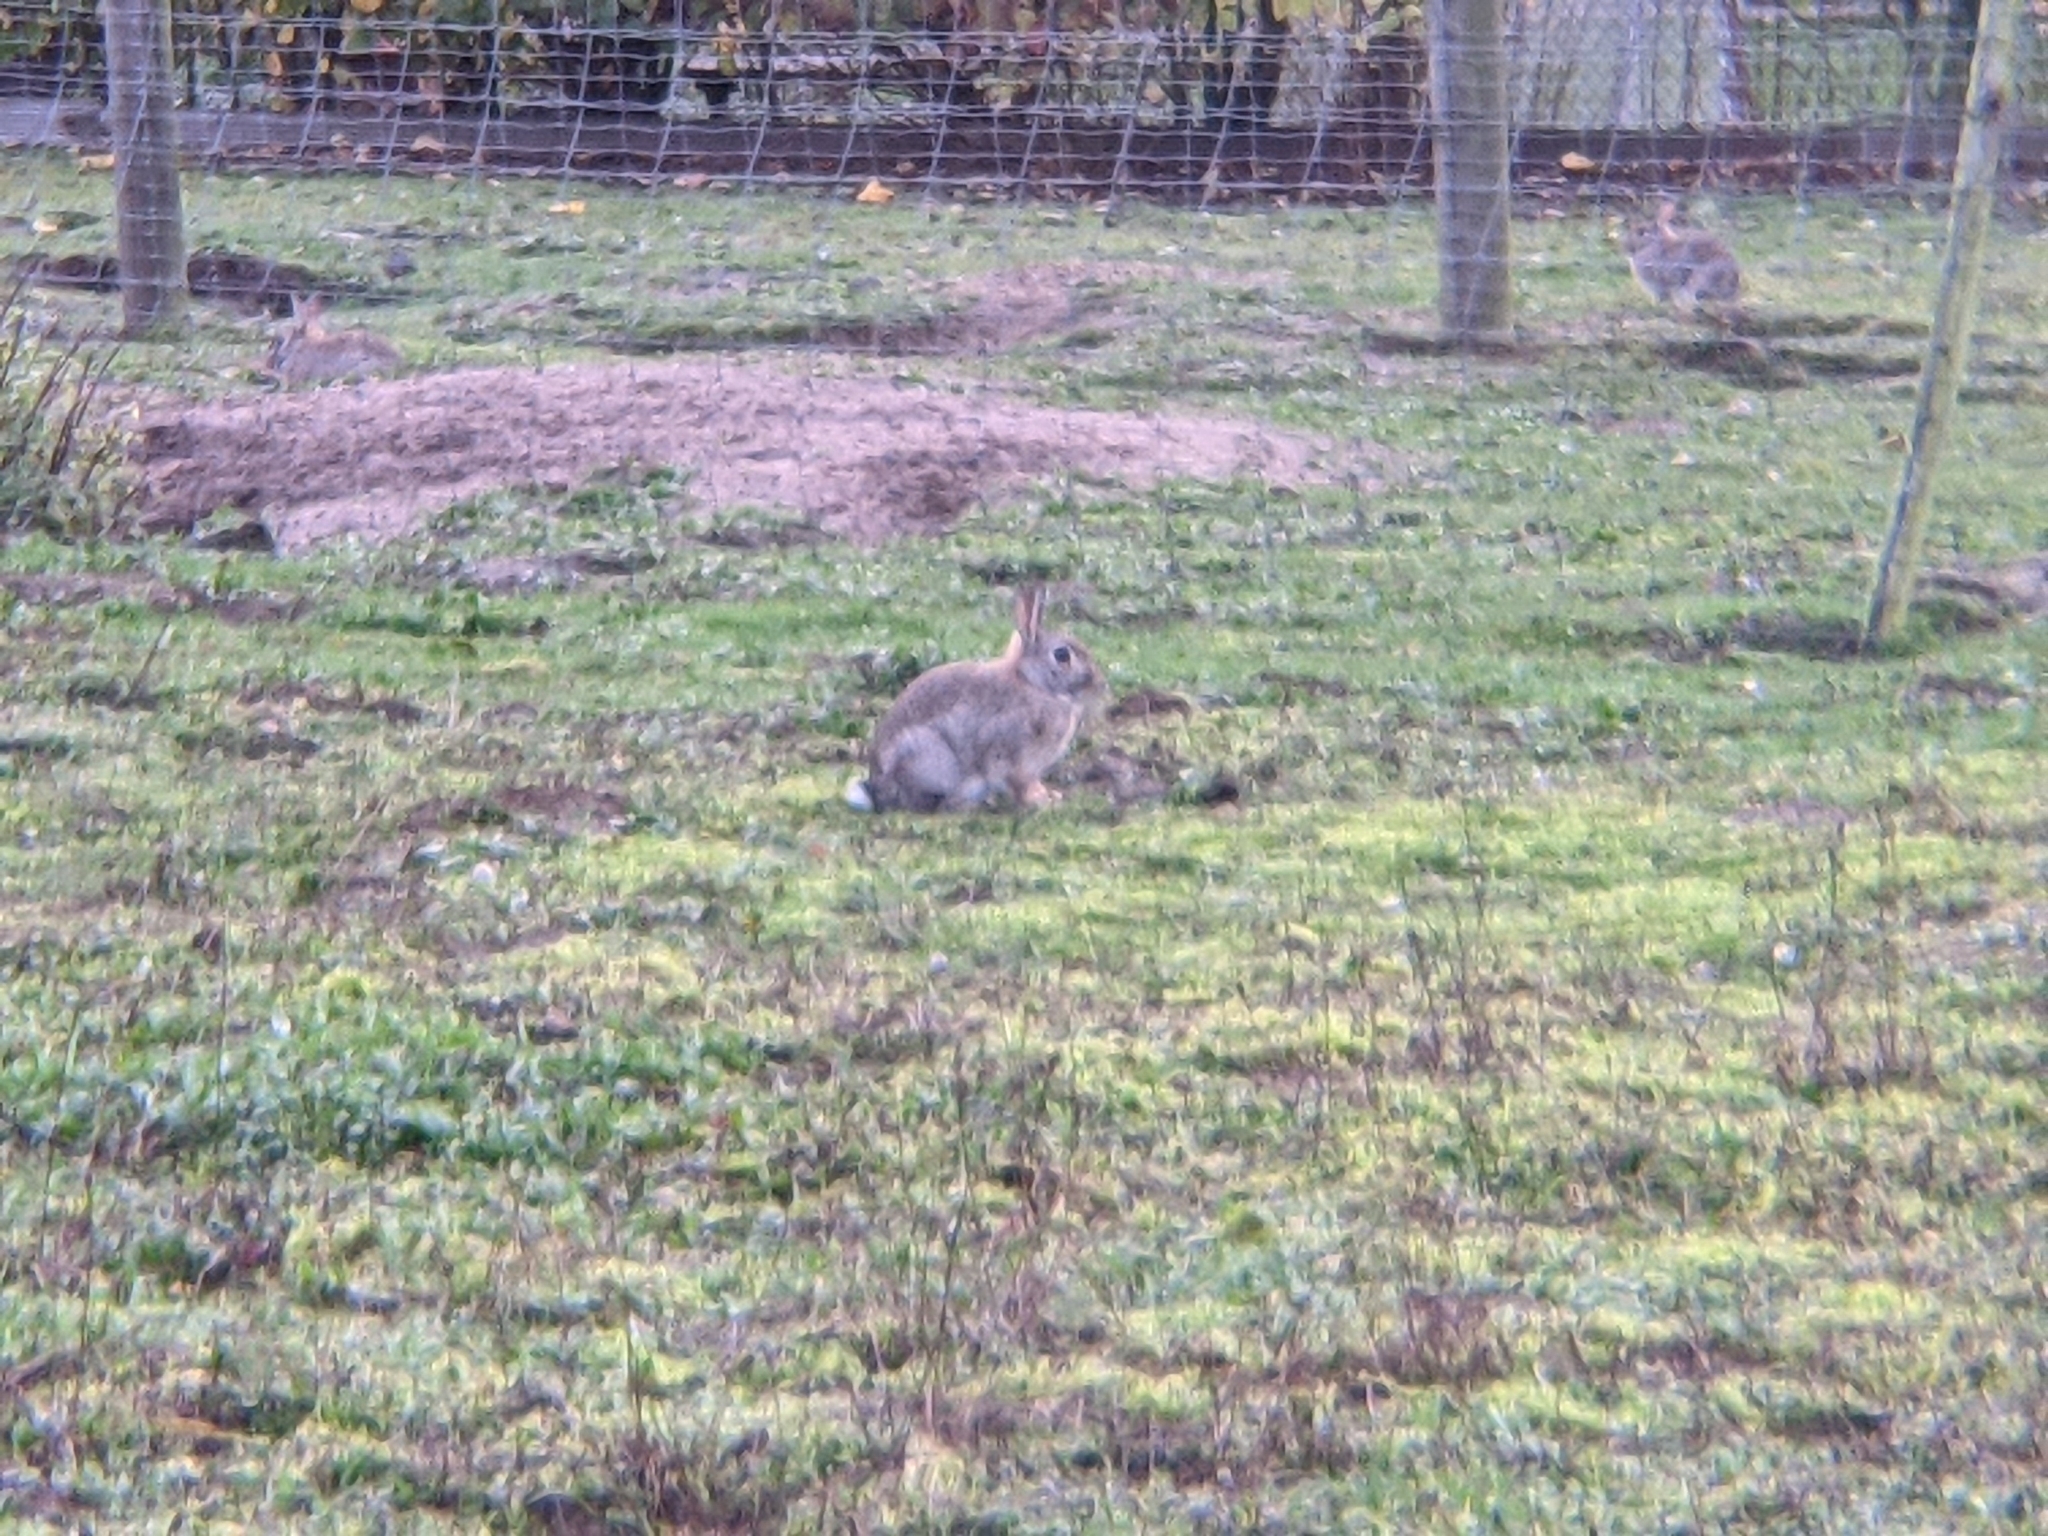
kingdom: Animalia
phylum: Chordata
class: Mammalia
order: Lagomorpha
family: Leporidae
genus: Oryctolagus
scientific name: Oryctolagus cuniculus
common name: European rabbit
